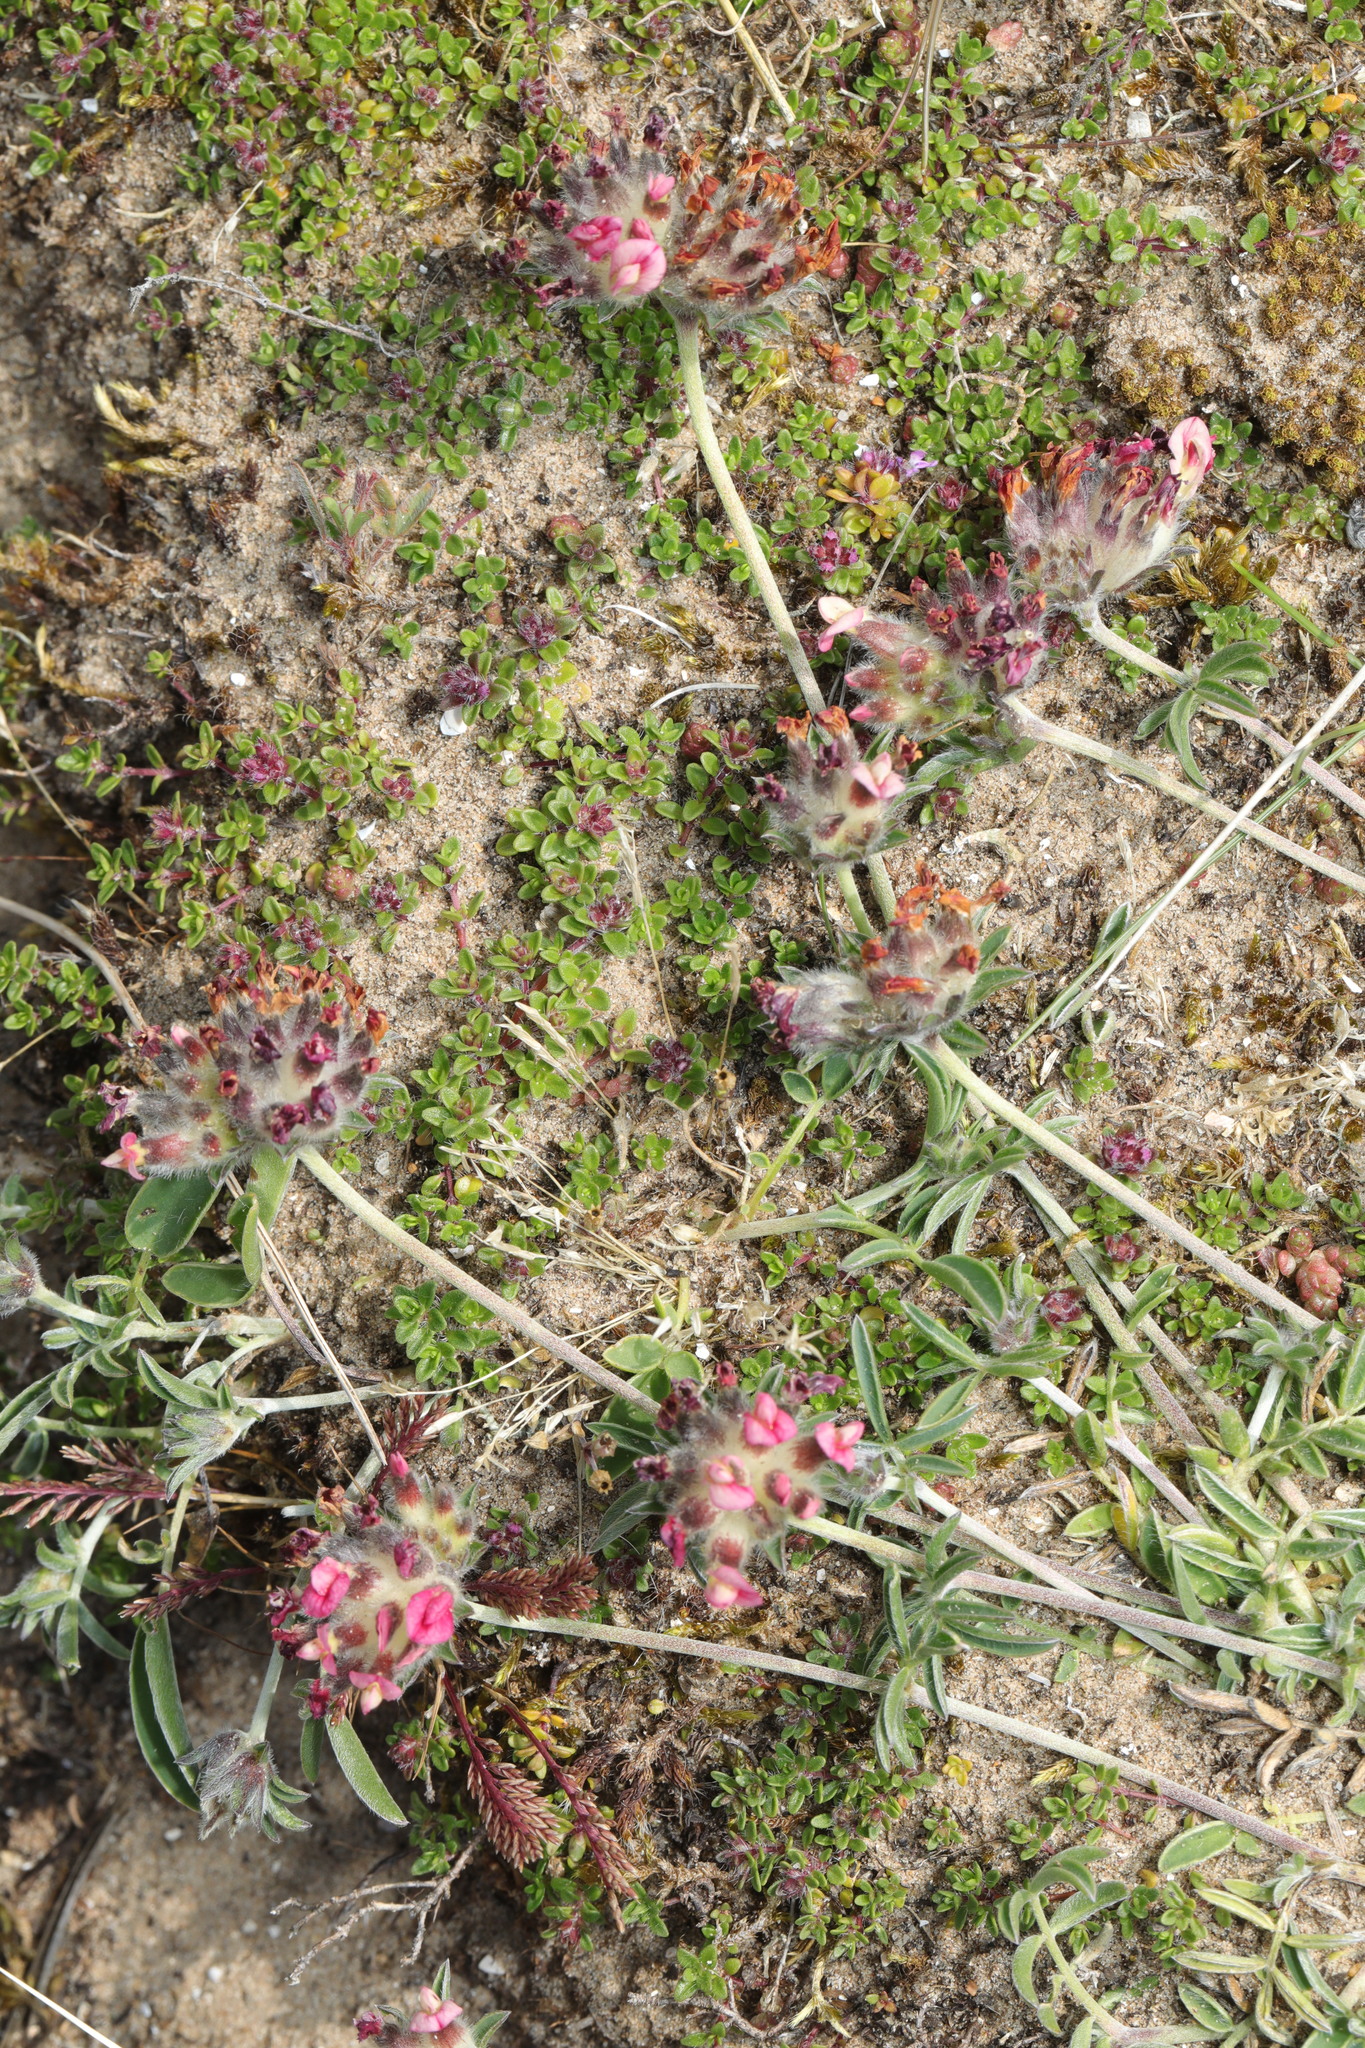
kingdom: Plantae
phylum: Tracheophyta
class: Magnoliopsida
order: Fabales
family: Fabaceae
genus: Anthyllis
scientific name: Anthyllis vulneraria
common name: Kidney vetch
